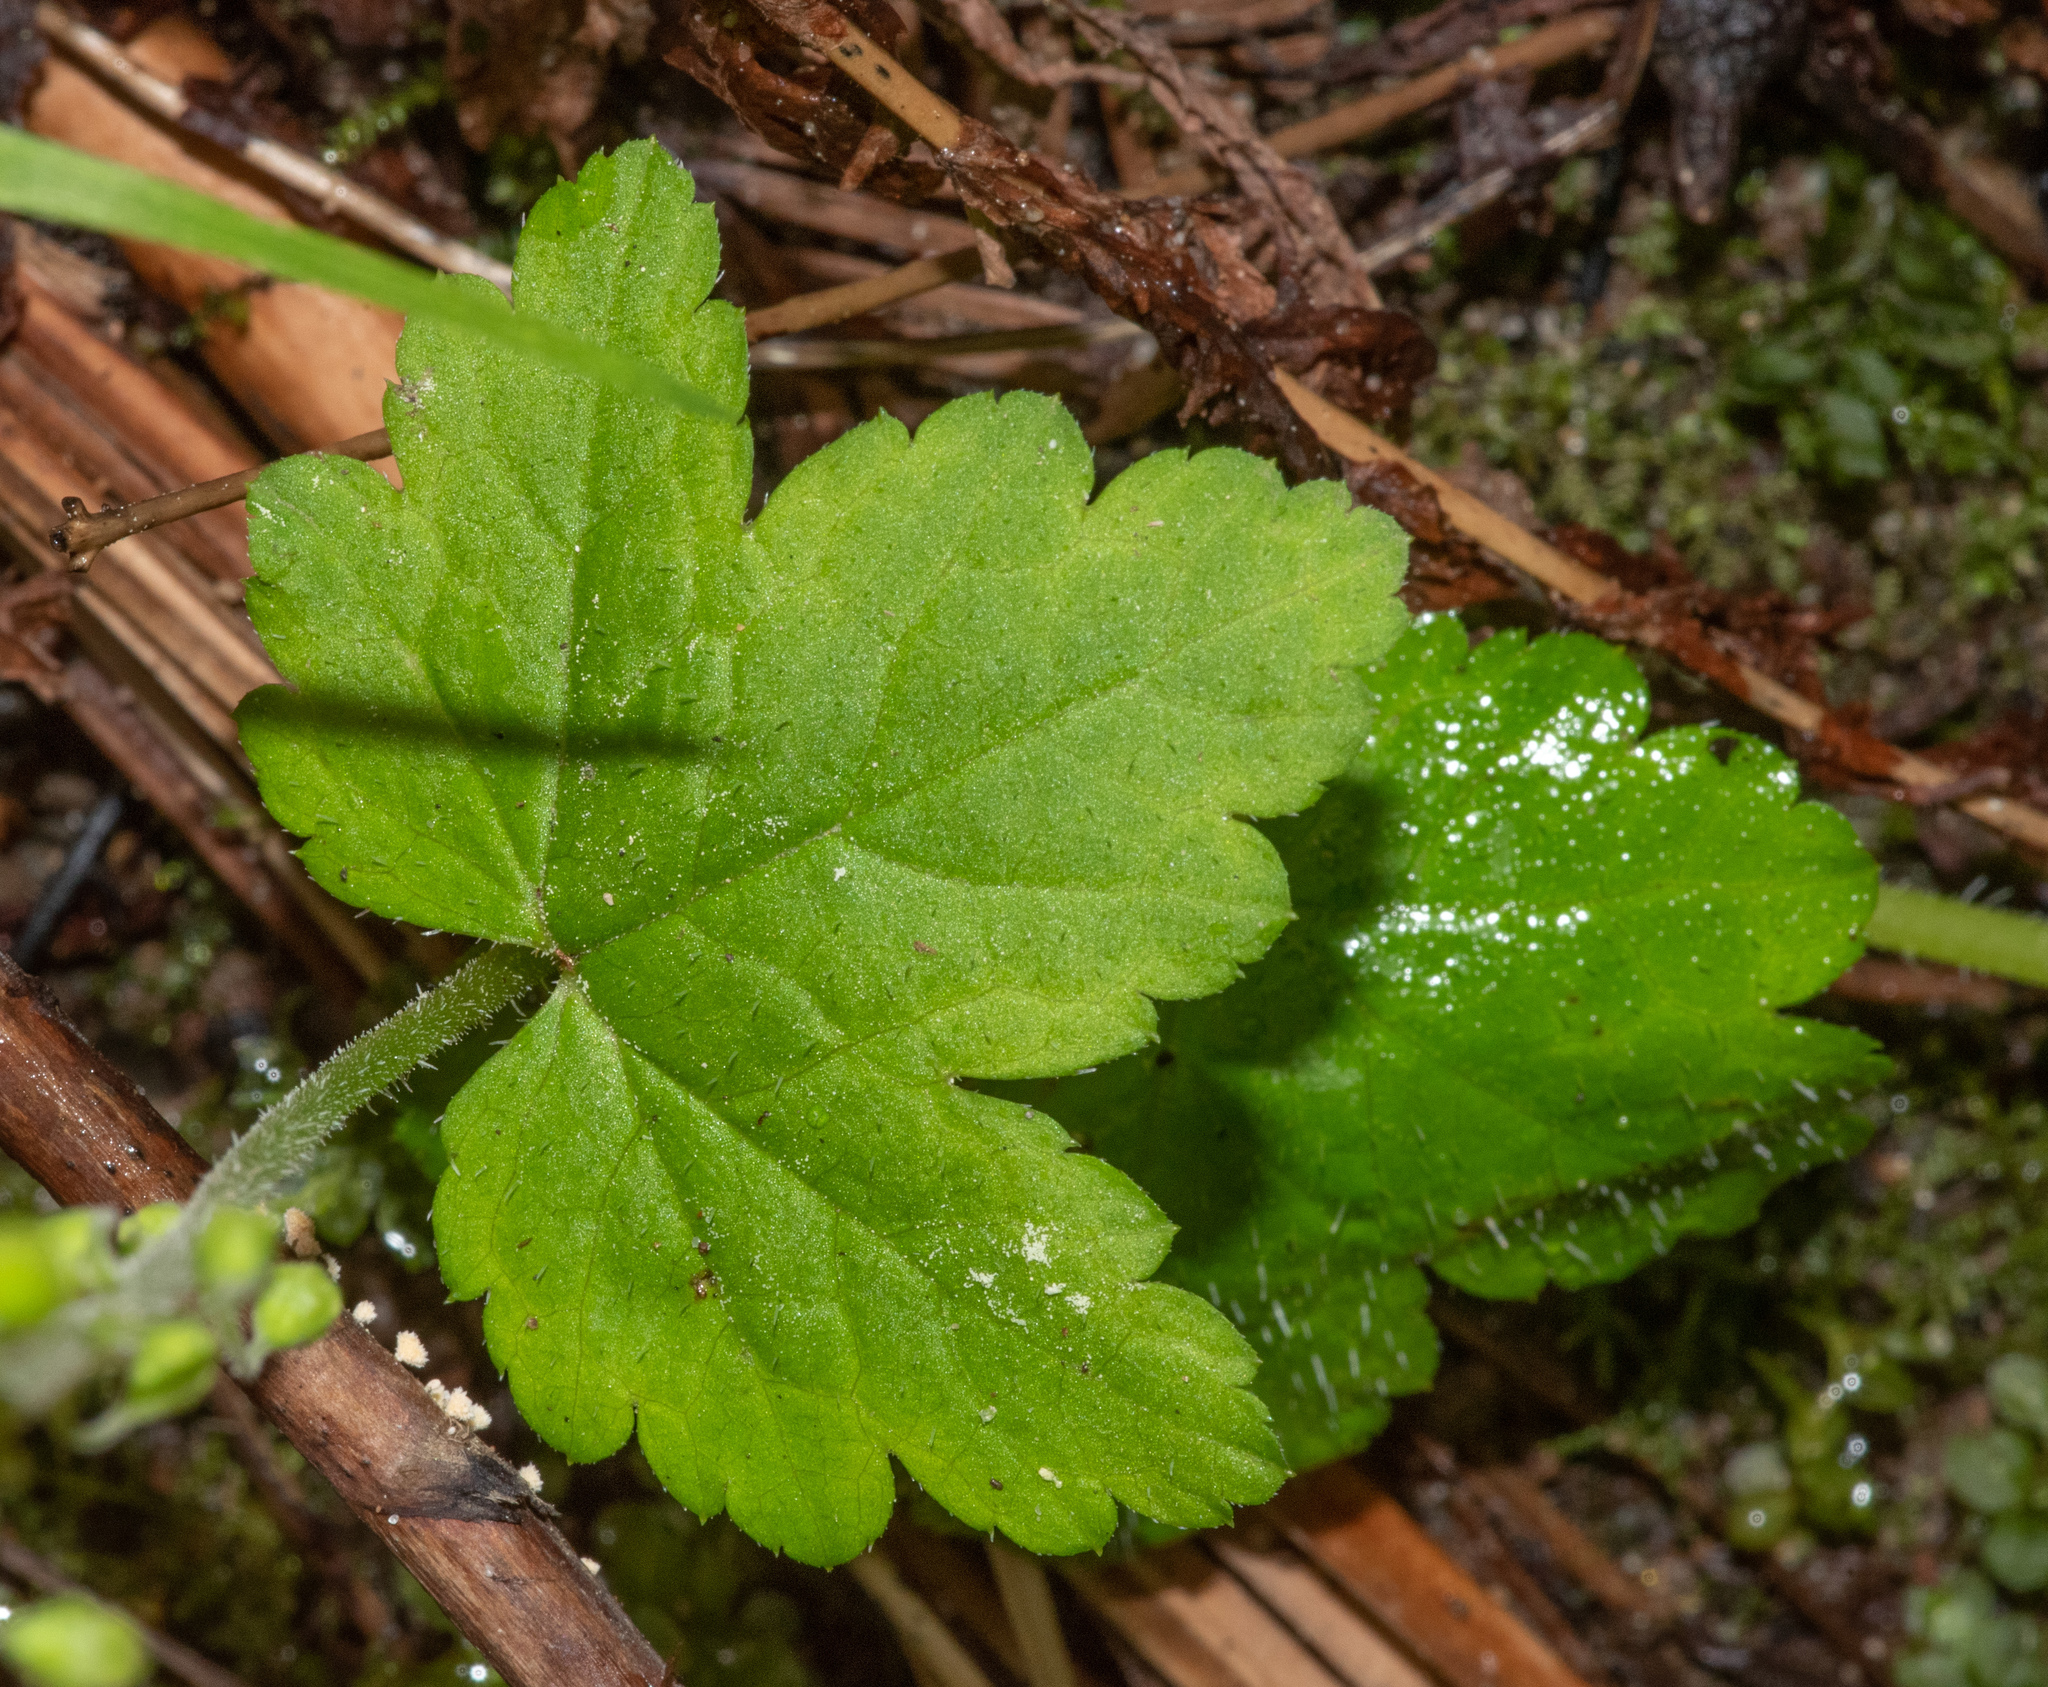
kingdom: Plantae
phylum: Tracheophyta
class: Magnoliopsida
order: Saxifragales
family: Saxifragaceae
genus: Mitellastra
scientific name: Mitellastra caulescens
